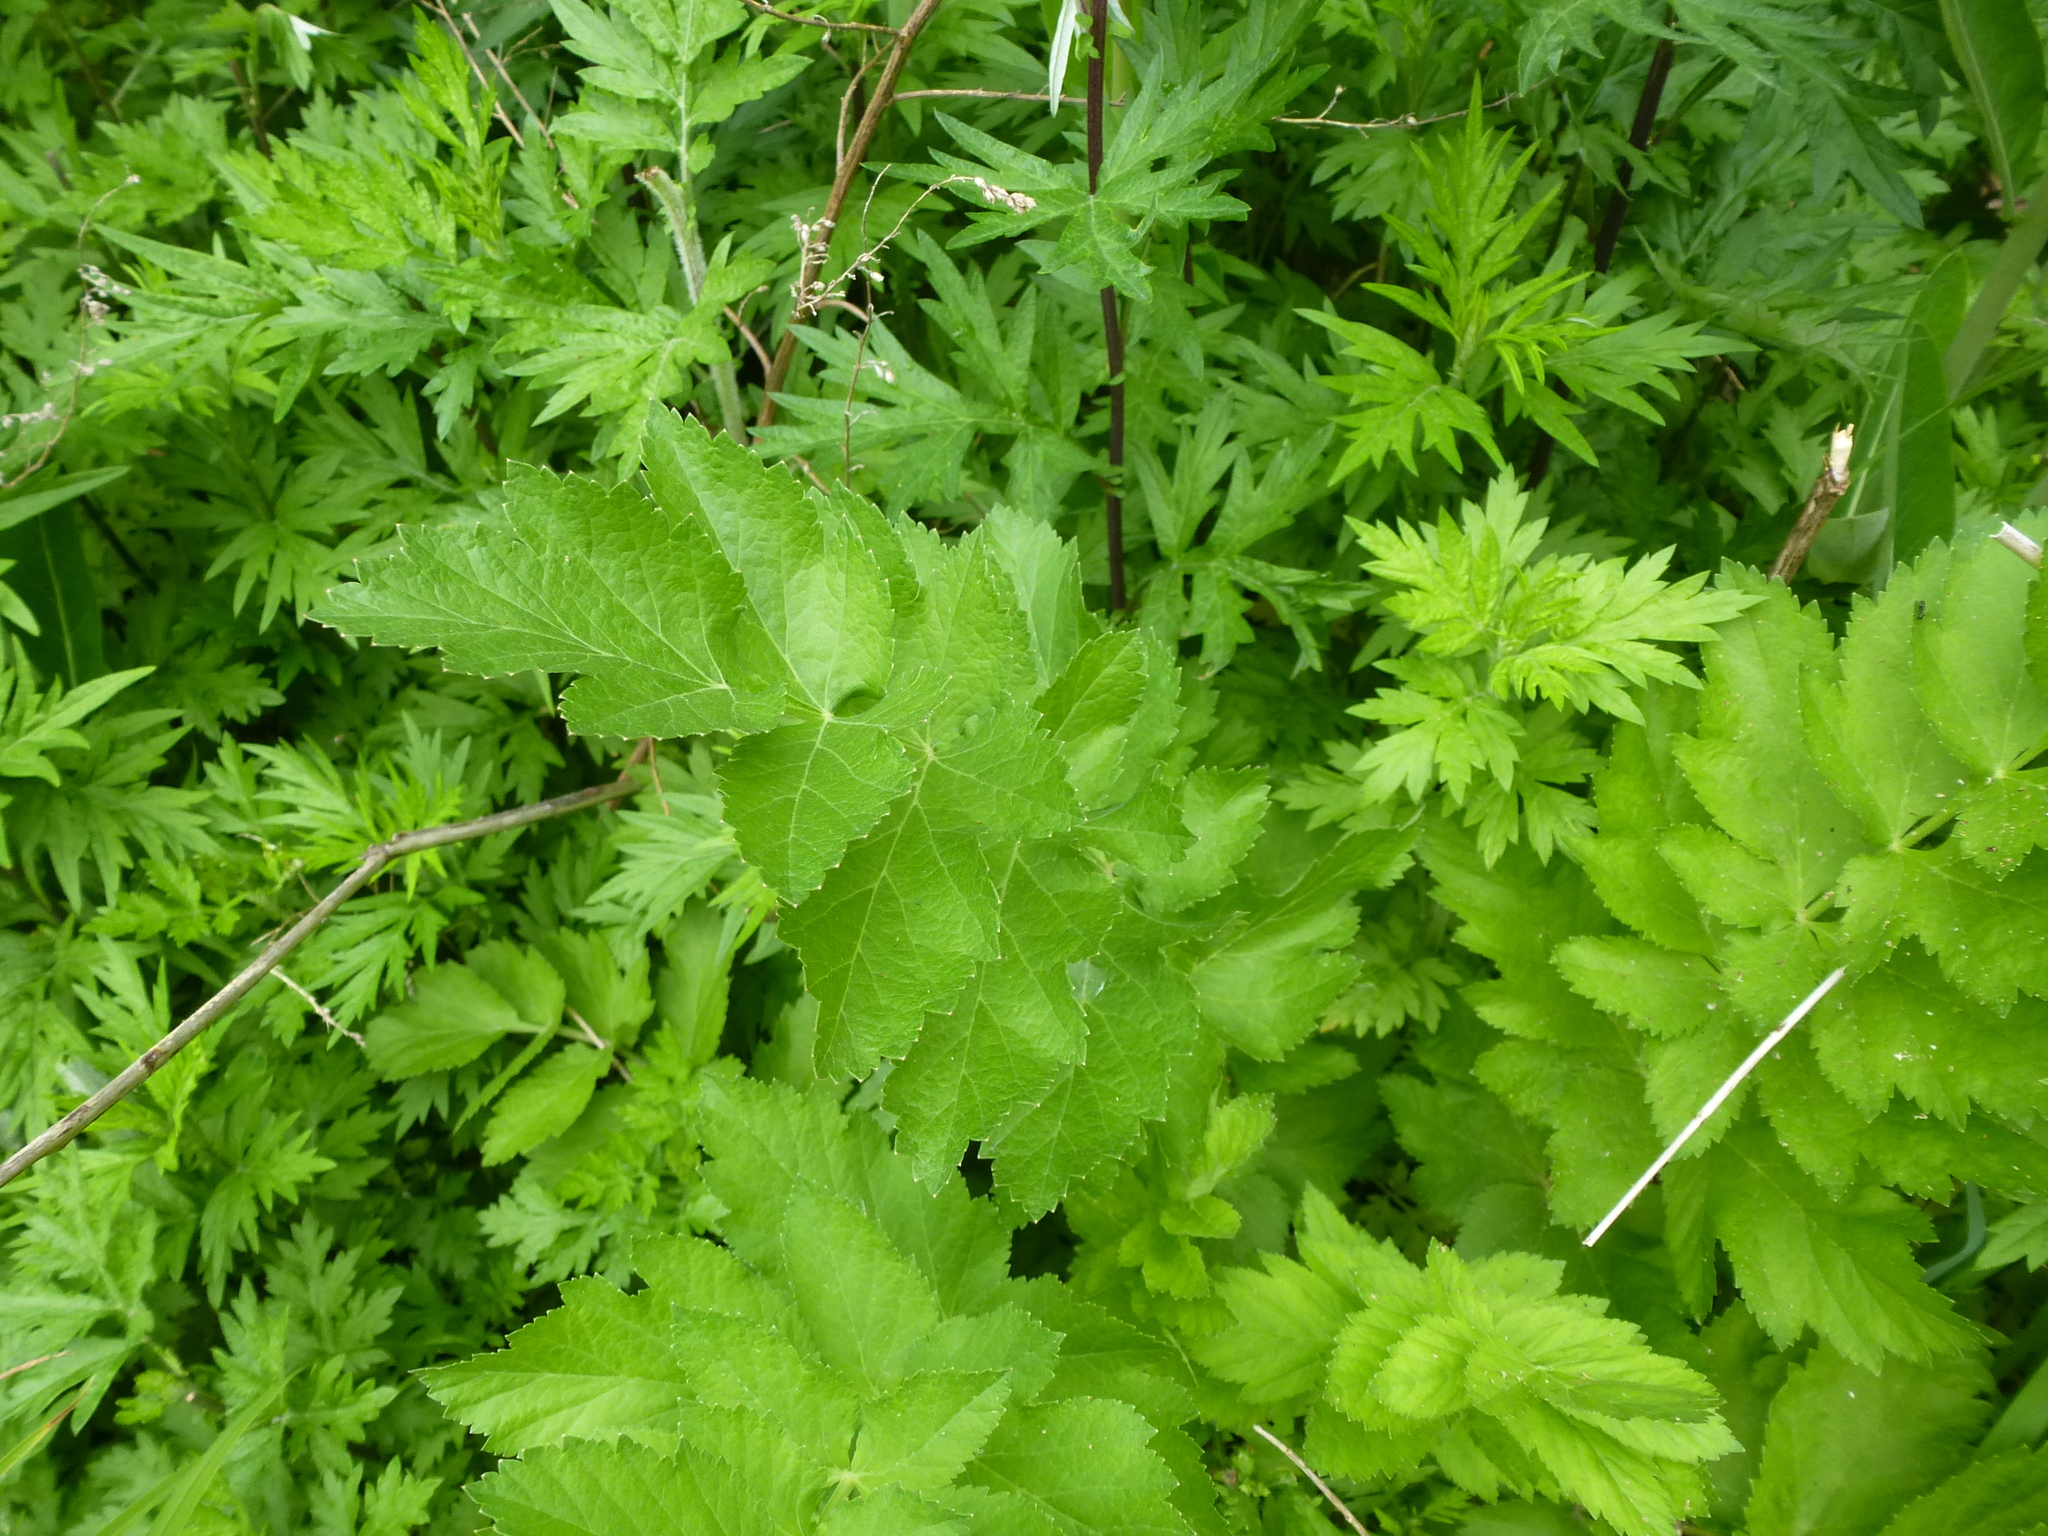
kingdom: Plantae
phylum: Tracheophyta
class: Magnoliopsida
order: Apiales
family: Apiaceae
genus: Pastinaca
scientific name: Pastinaca sativa
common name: Wild parsnip
